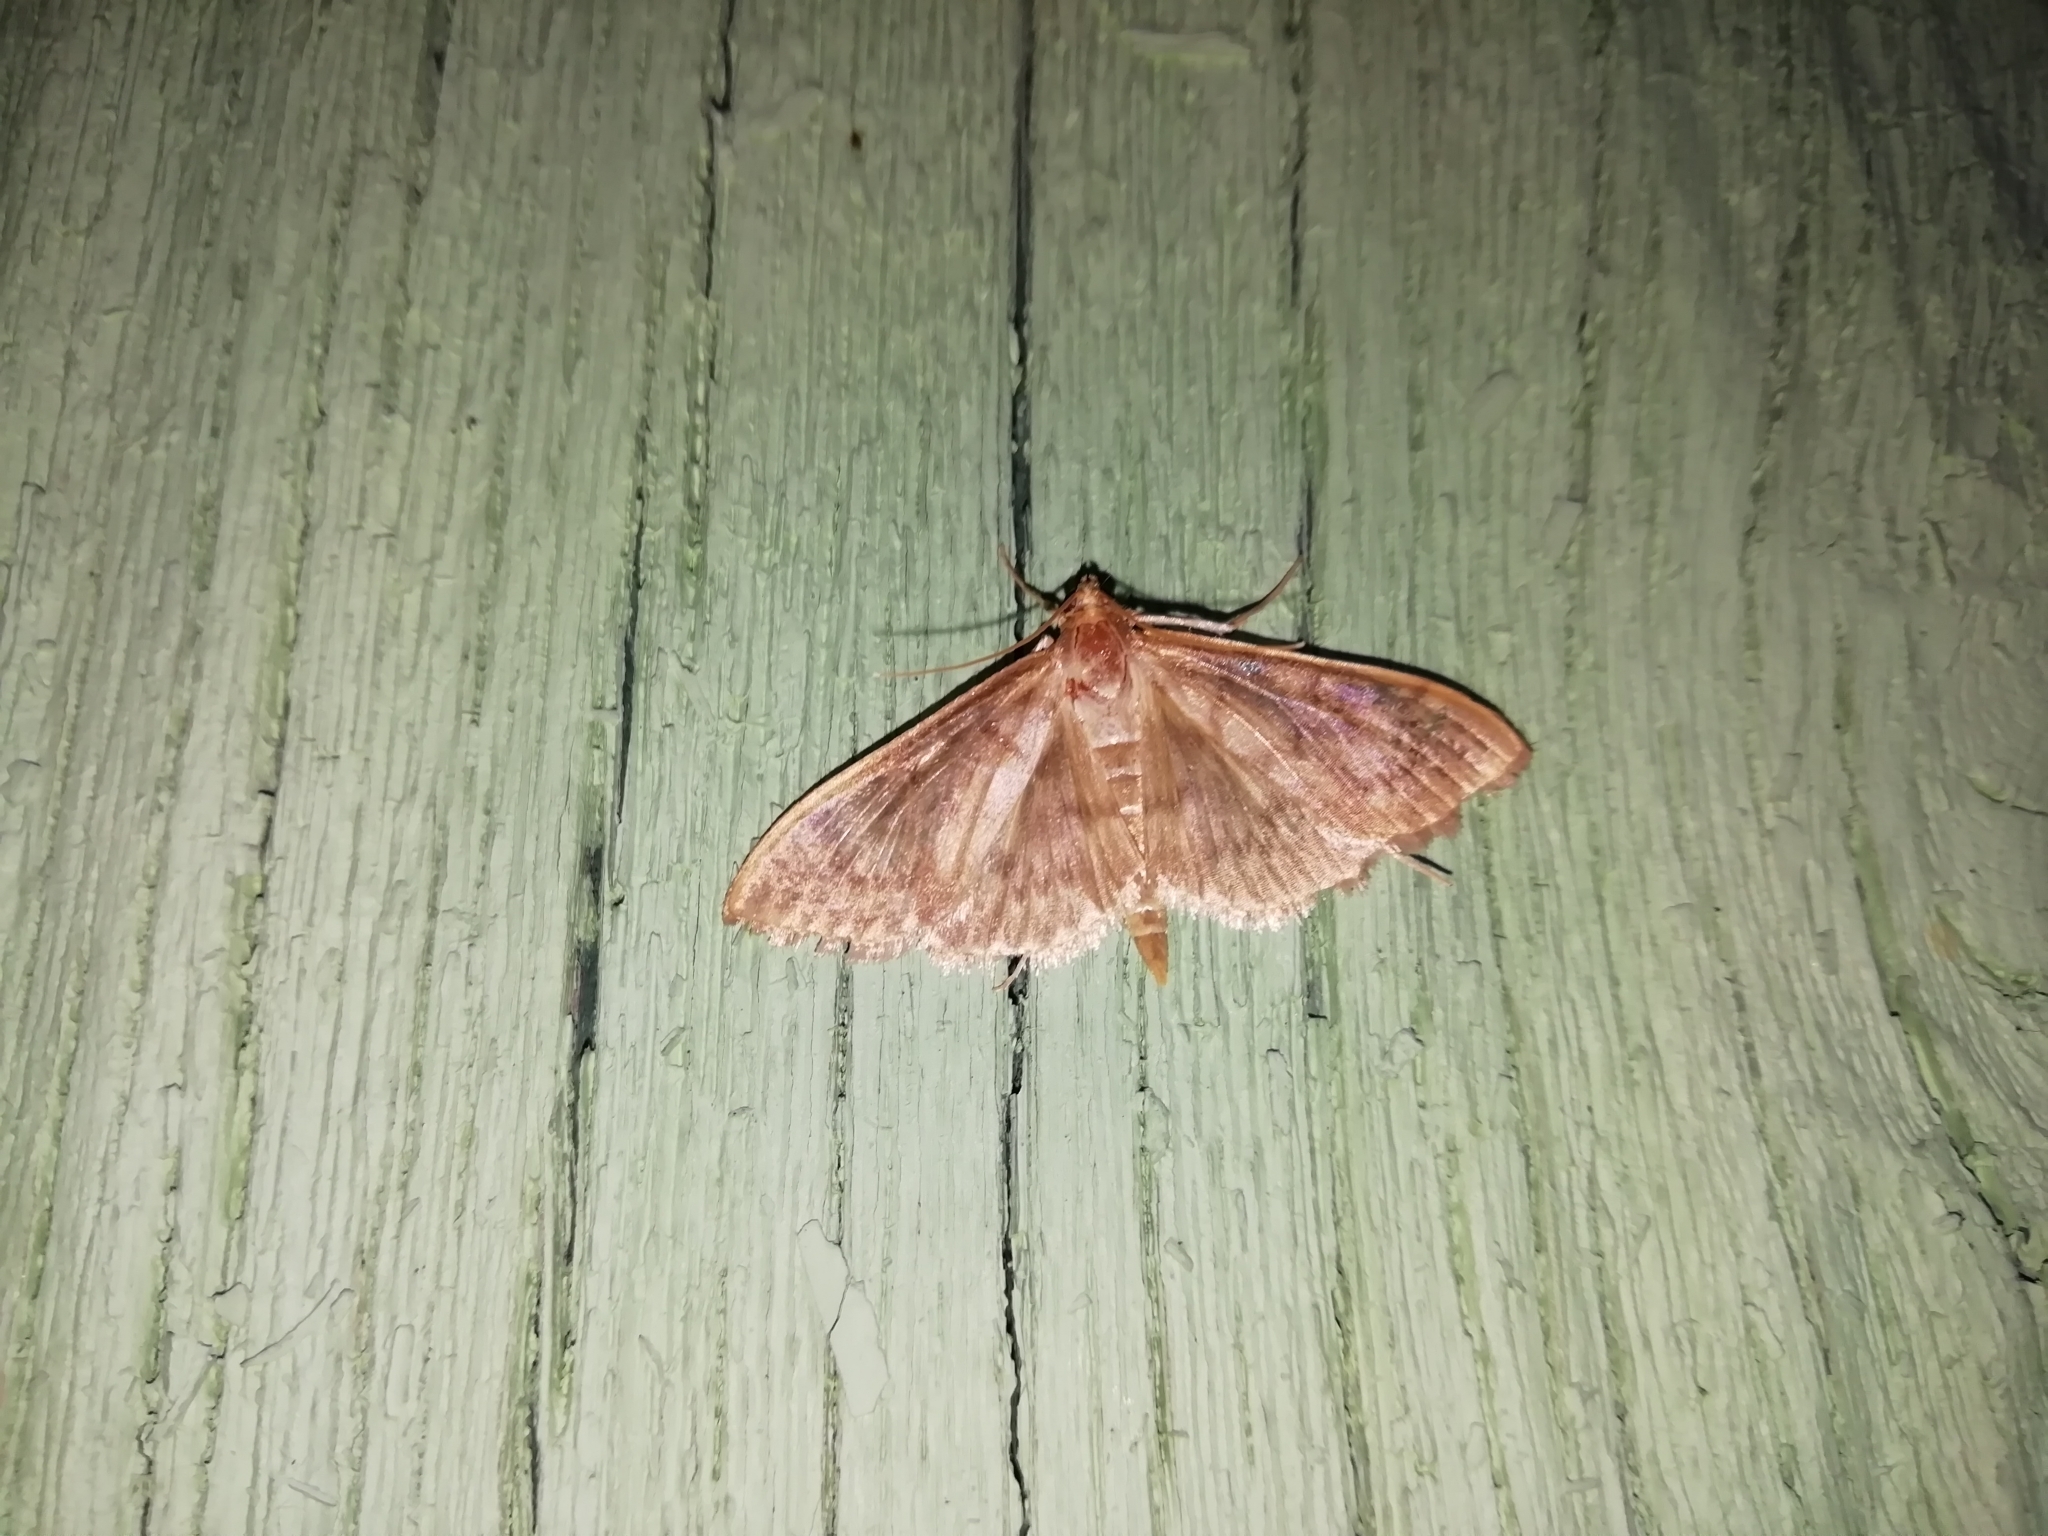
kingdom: Animalia
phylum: Arthropoda
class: Insecta
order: Lepidoptera
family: Crambidae
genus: Patania
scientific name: Patania ruralis
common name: Mother of pearl
